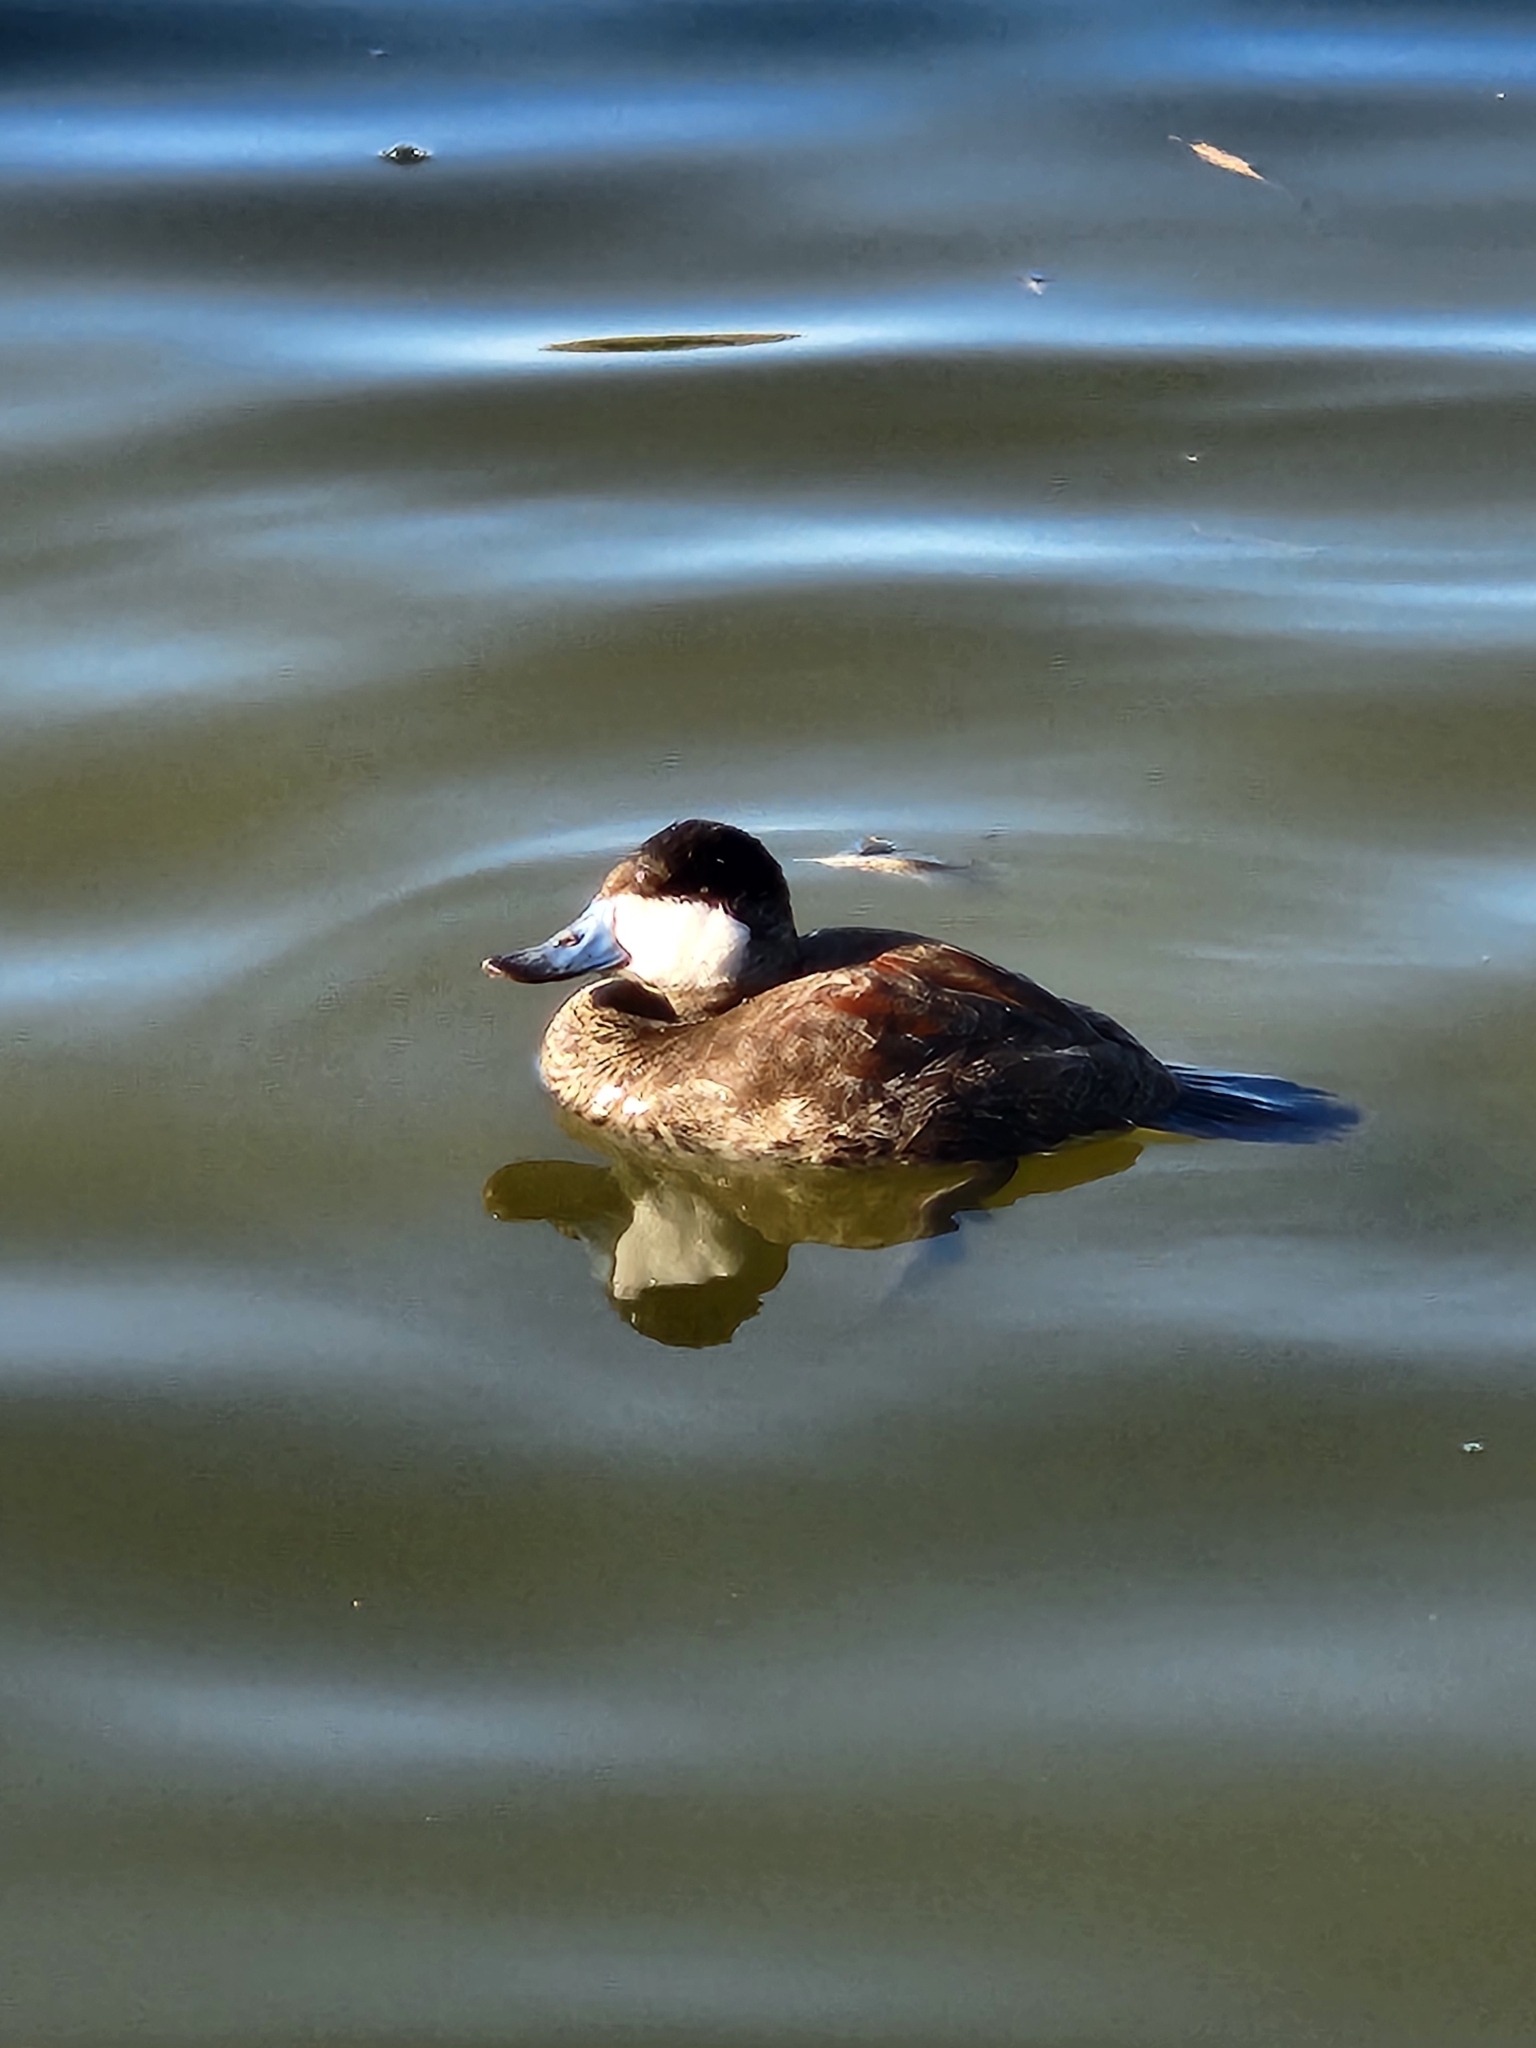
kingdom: Animalia
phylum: Chordata
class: Aves
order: Anseriformes
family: Anatidae
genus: Oxyura
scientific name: Oxyura jamaicensis
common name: Ruddy duck
